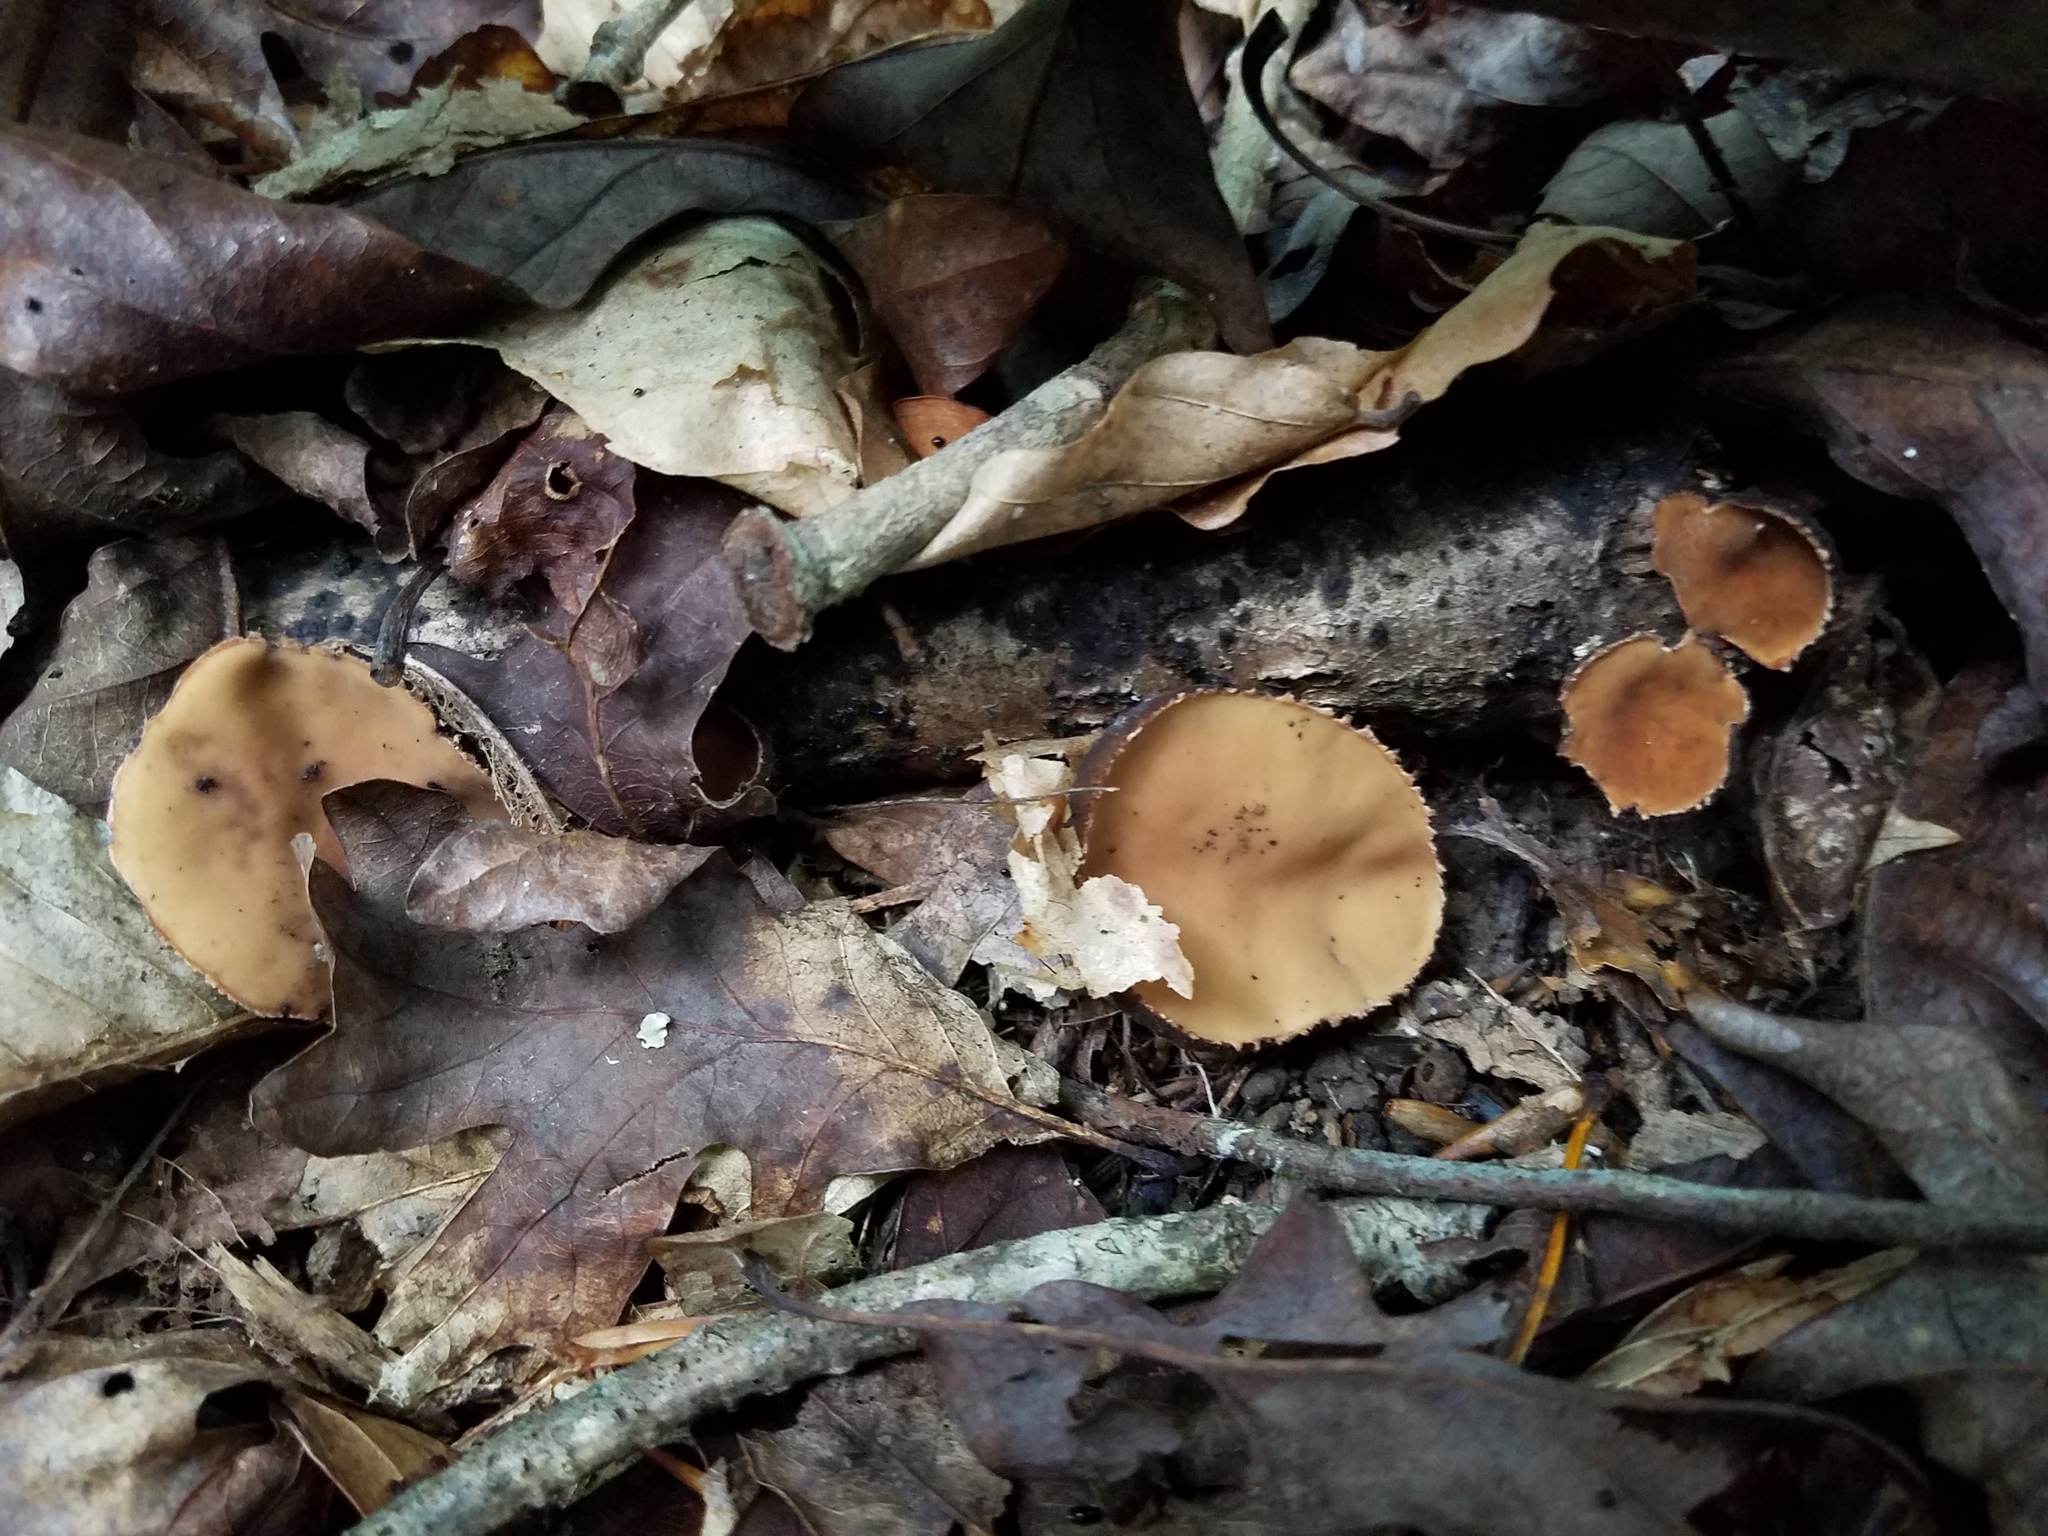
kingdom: Fungi
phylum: Ascomycota
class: Pezizomycetes
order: Pezizales
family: Sarcosomataceae
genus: Galiella
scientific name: Galiella rufa
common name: Hairy rubber cup
